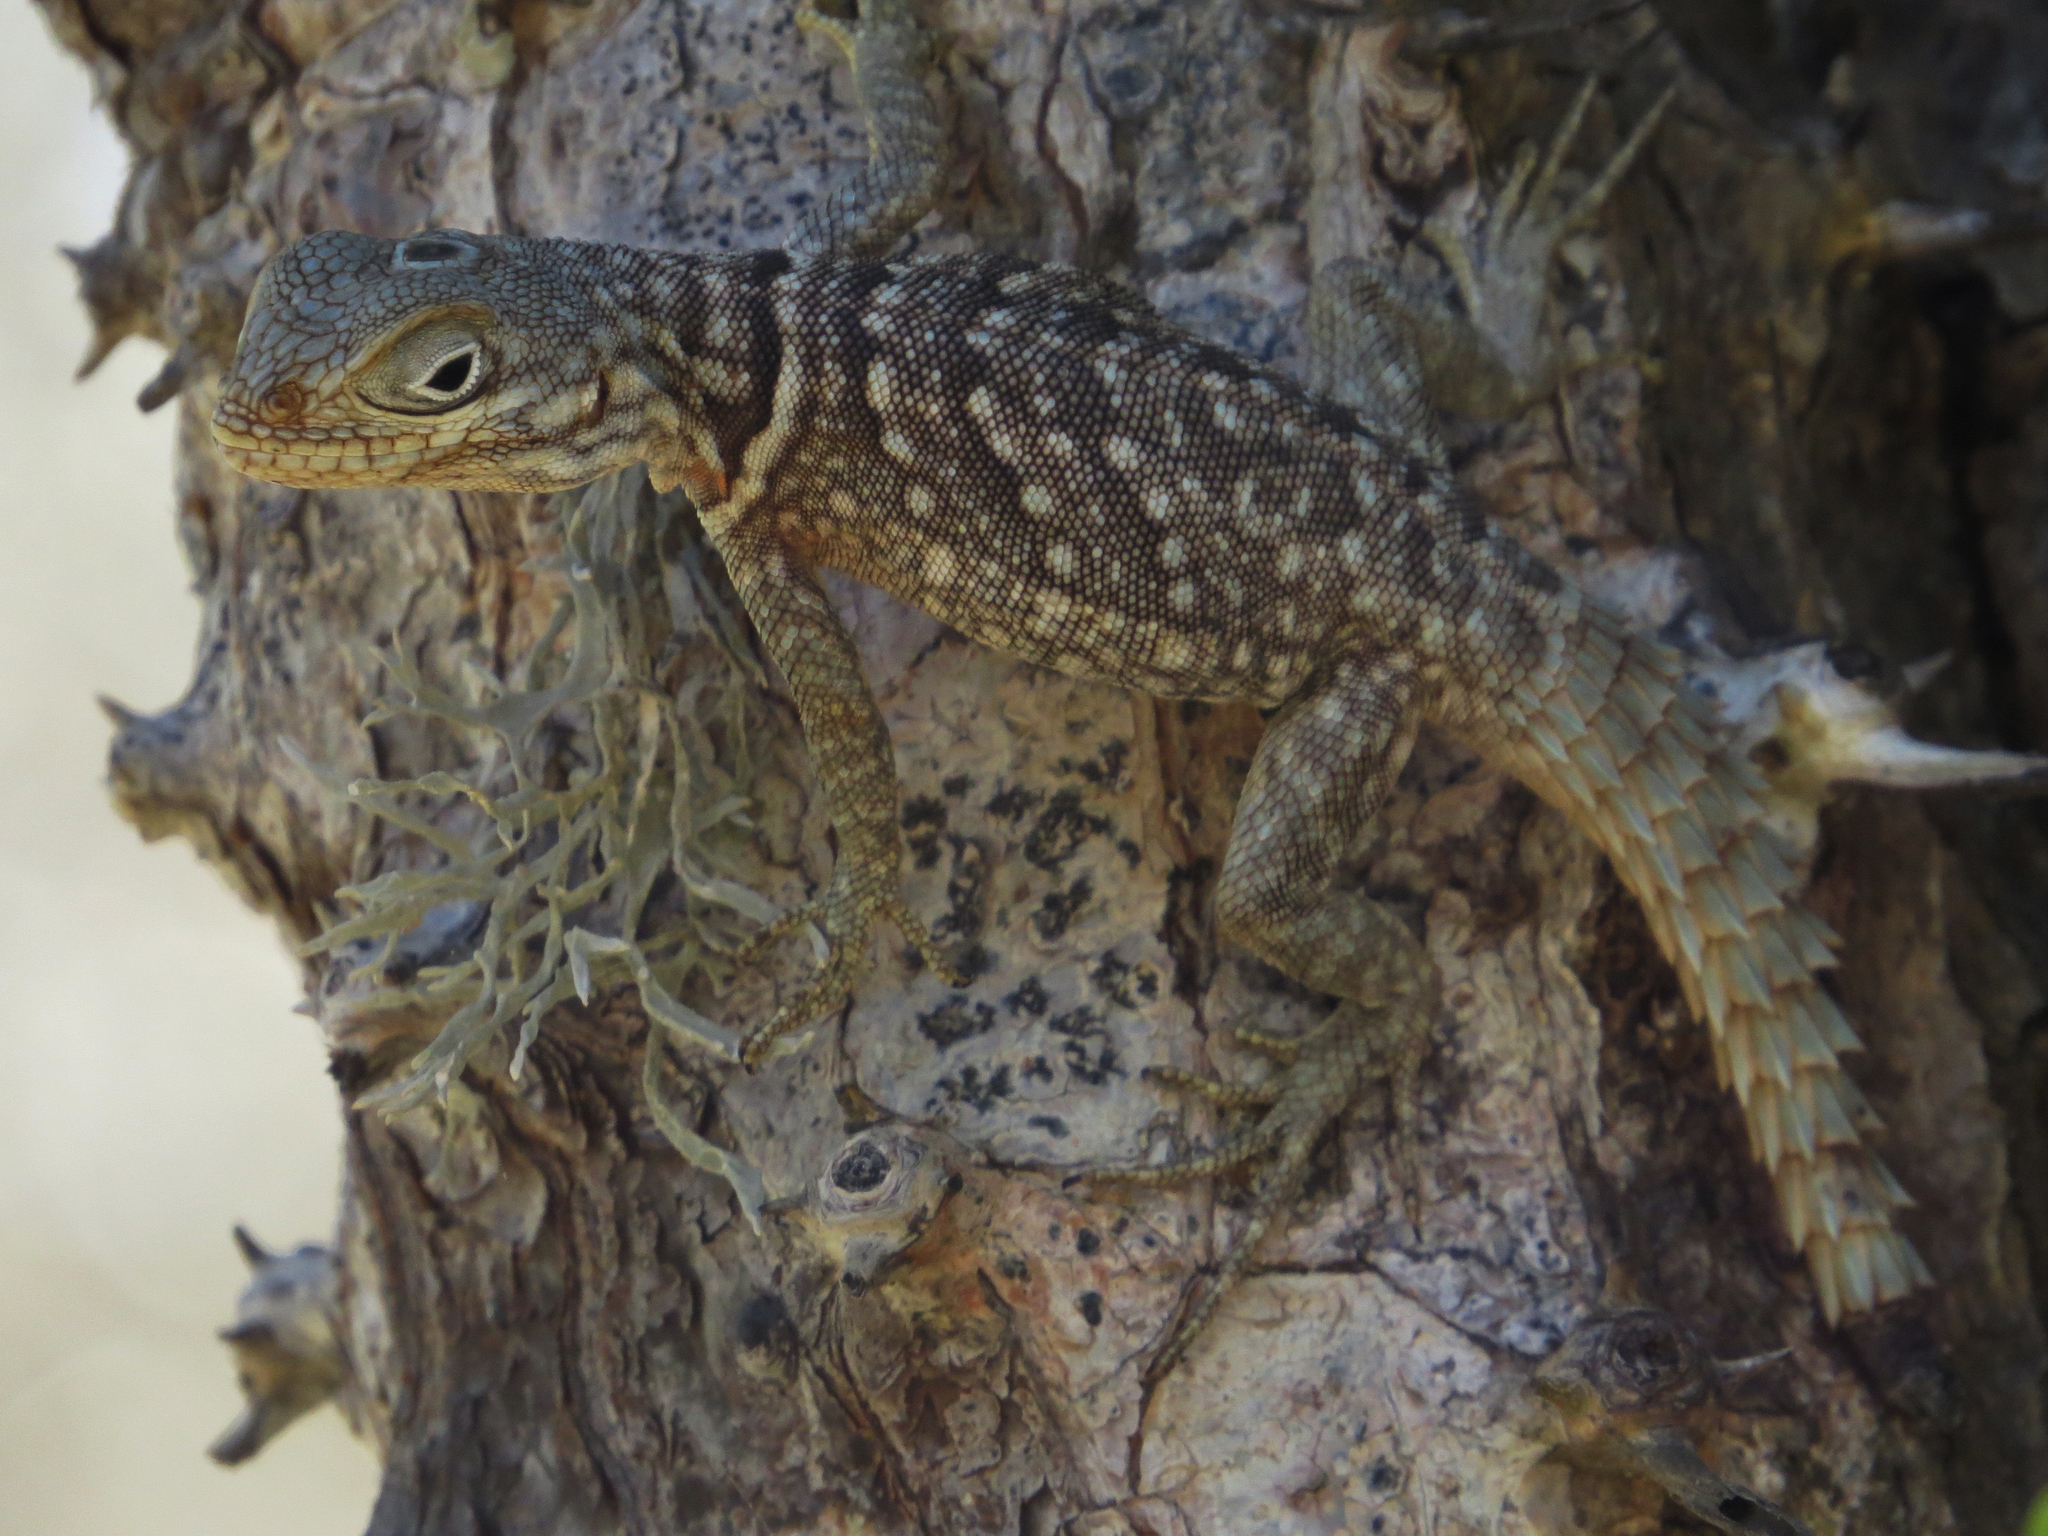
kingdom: Animalia
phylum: Chordata
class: Squamata
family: Opluridae
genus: Oplurus
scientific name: Oplurus cyclurus
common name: Merrem's madagascar swift
